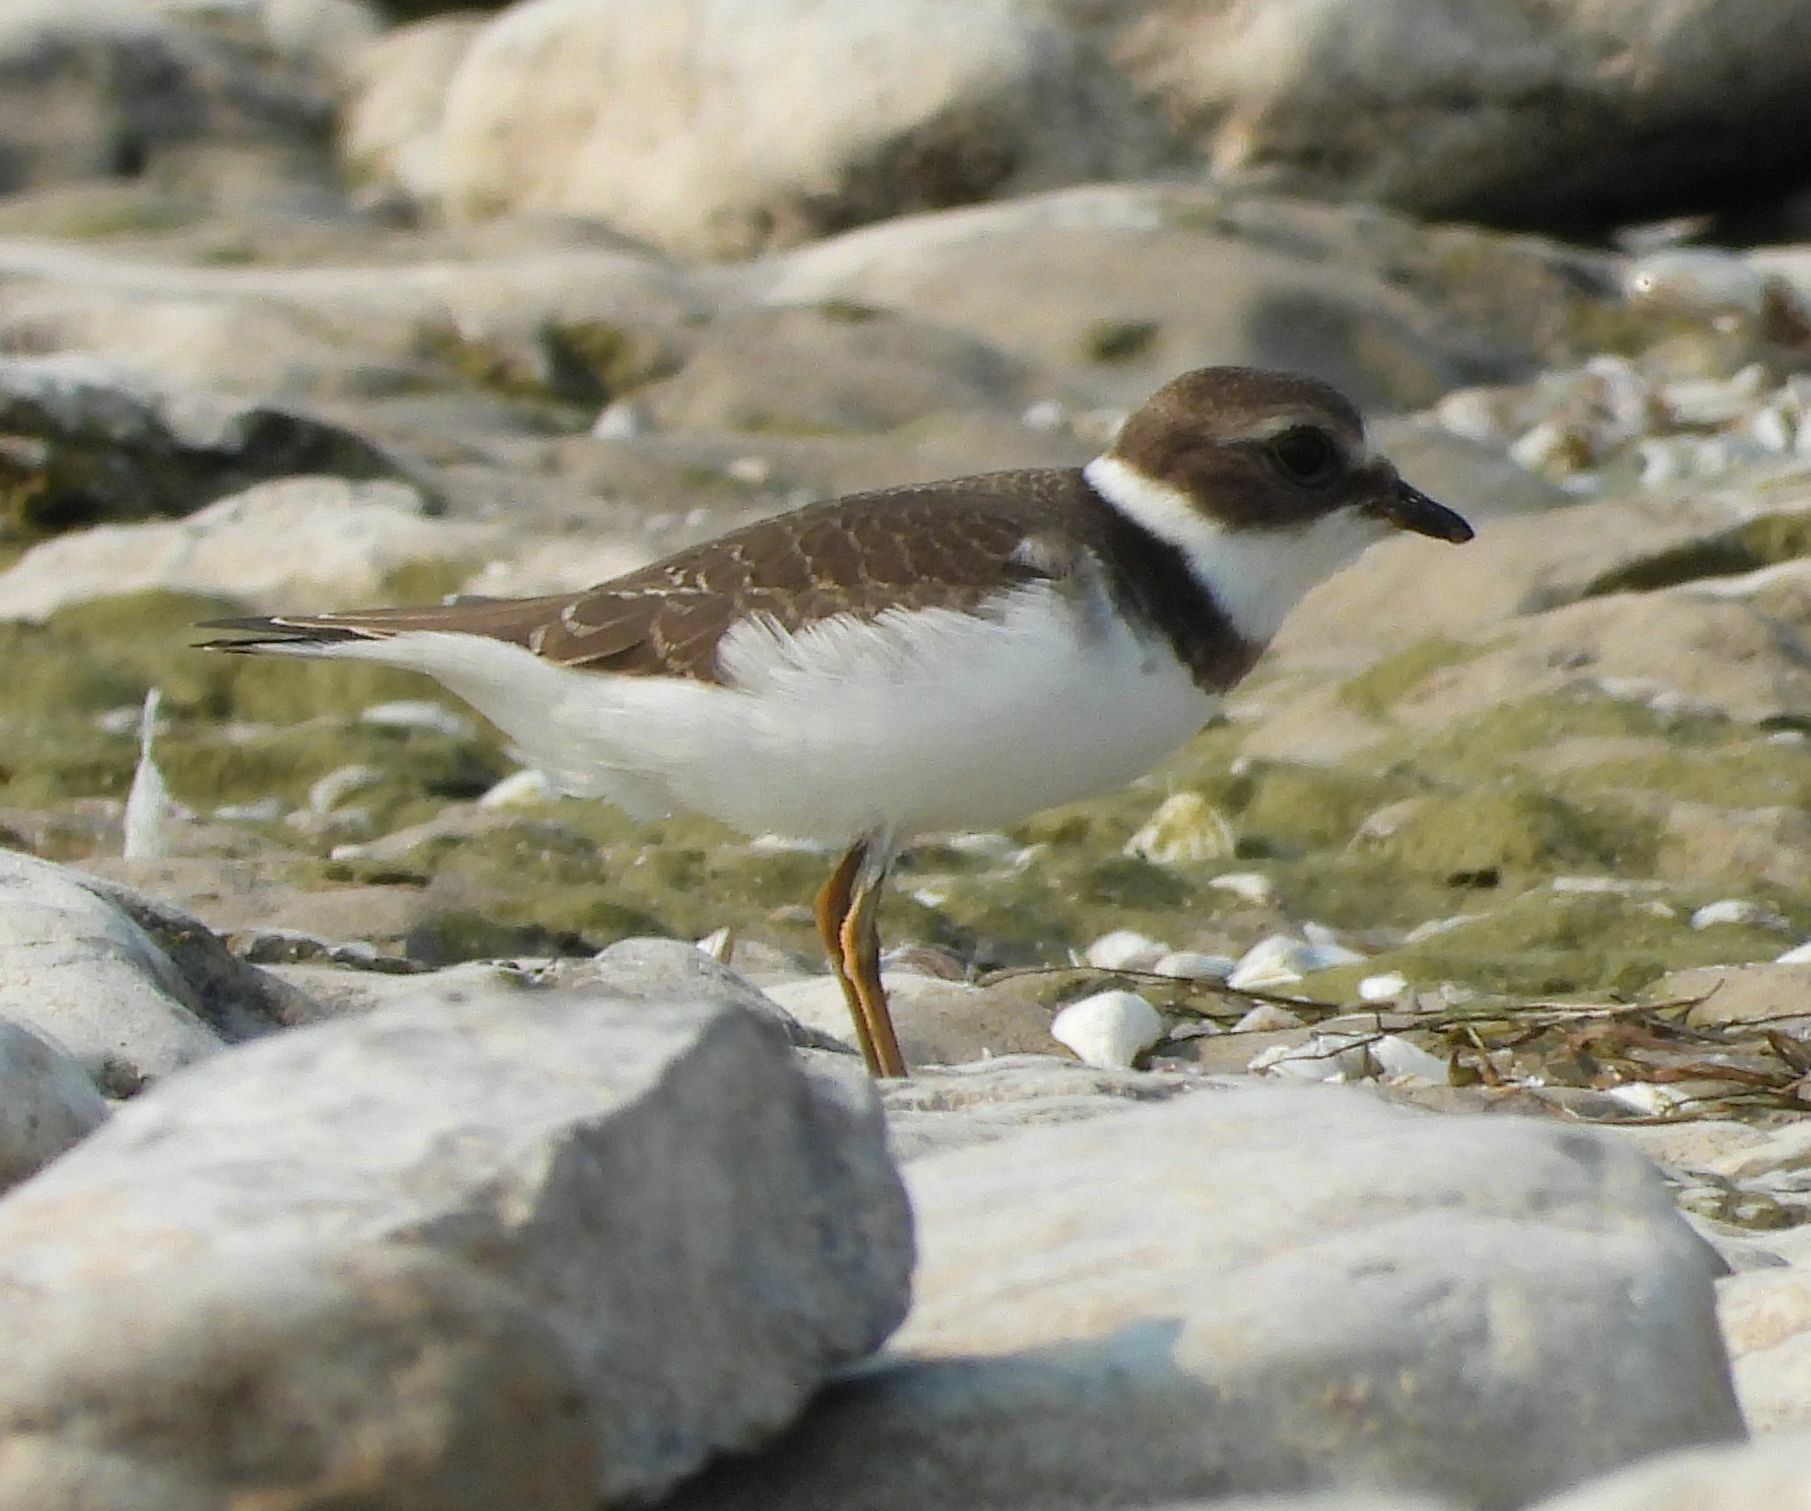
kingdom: Animalia
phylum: Chordata
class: Aves
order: Charadriiformes
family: Charadriidae
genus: Charadrius
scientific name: Charadrius semipalmatus
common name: Semipalmated plover
